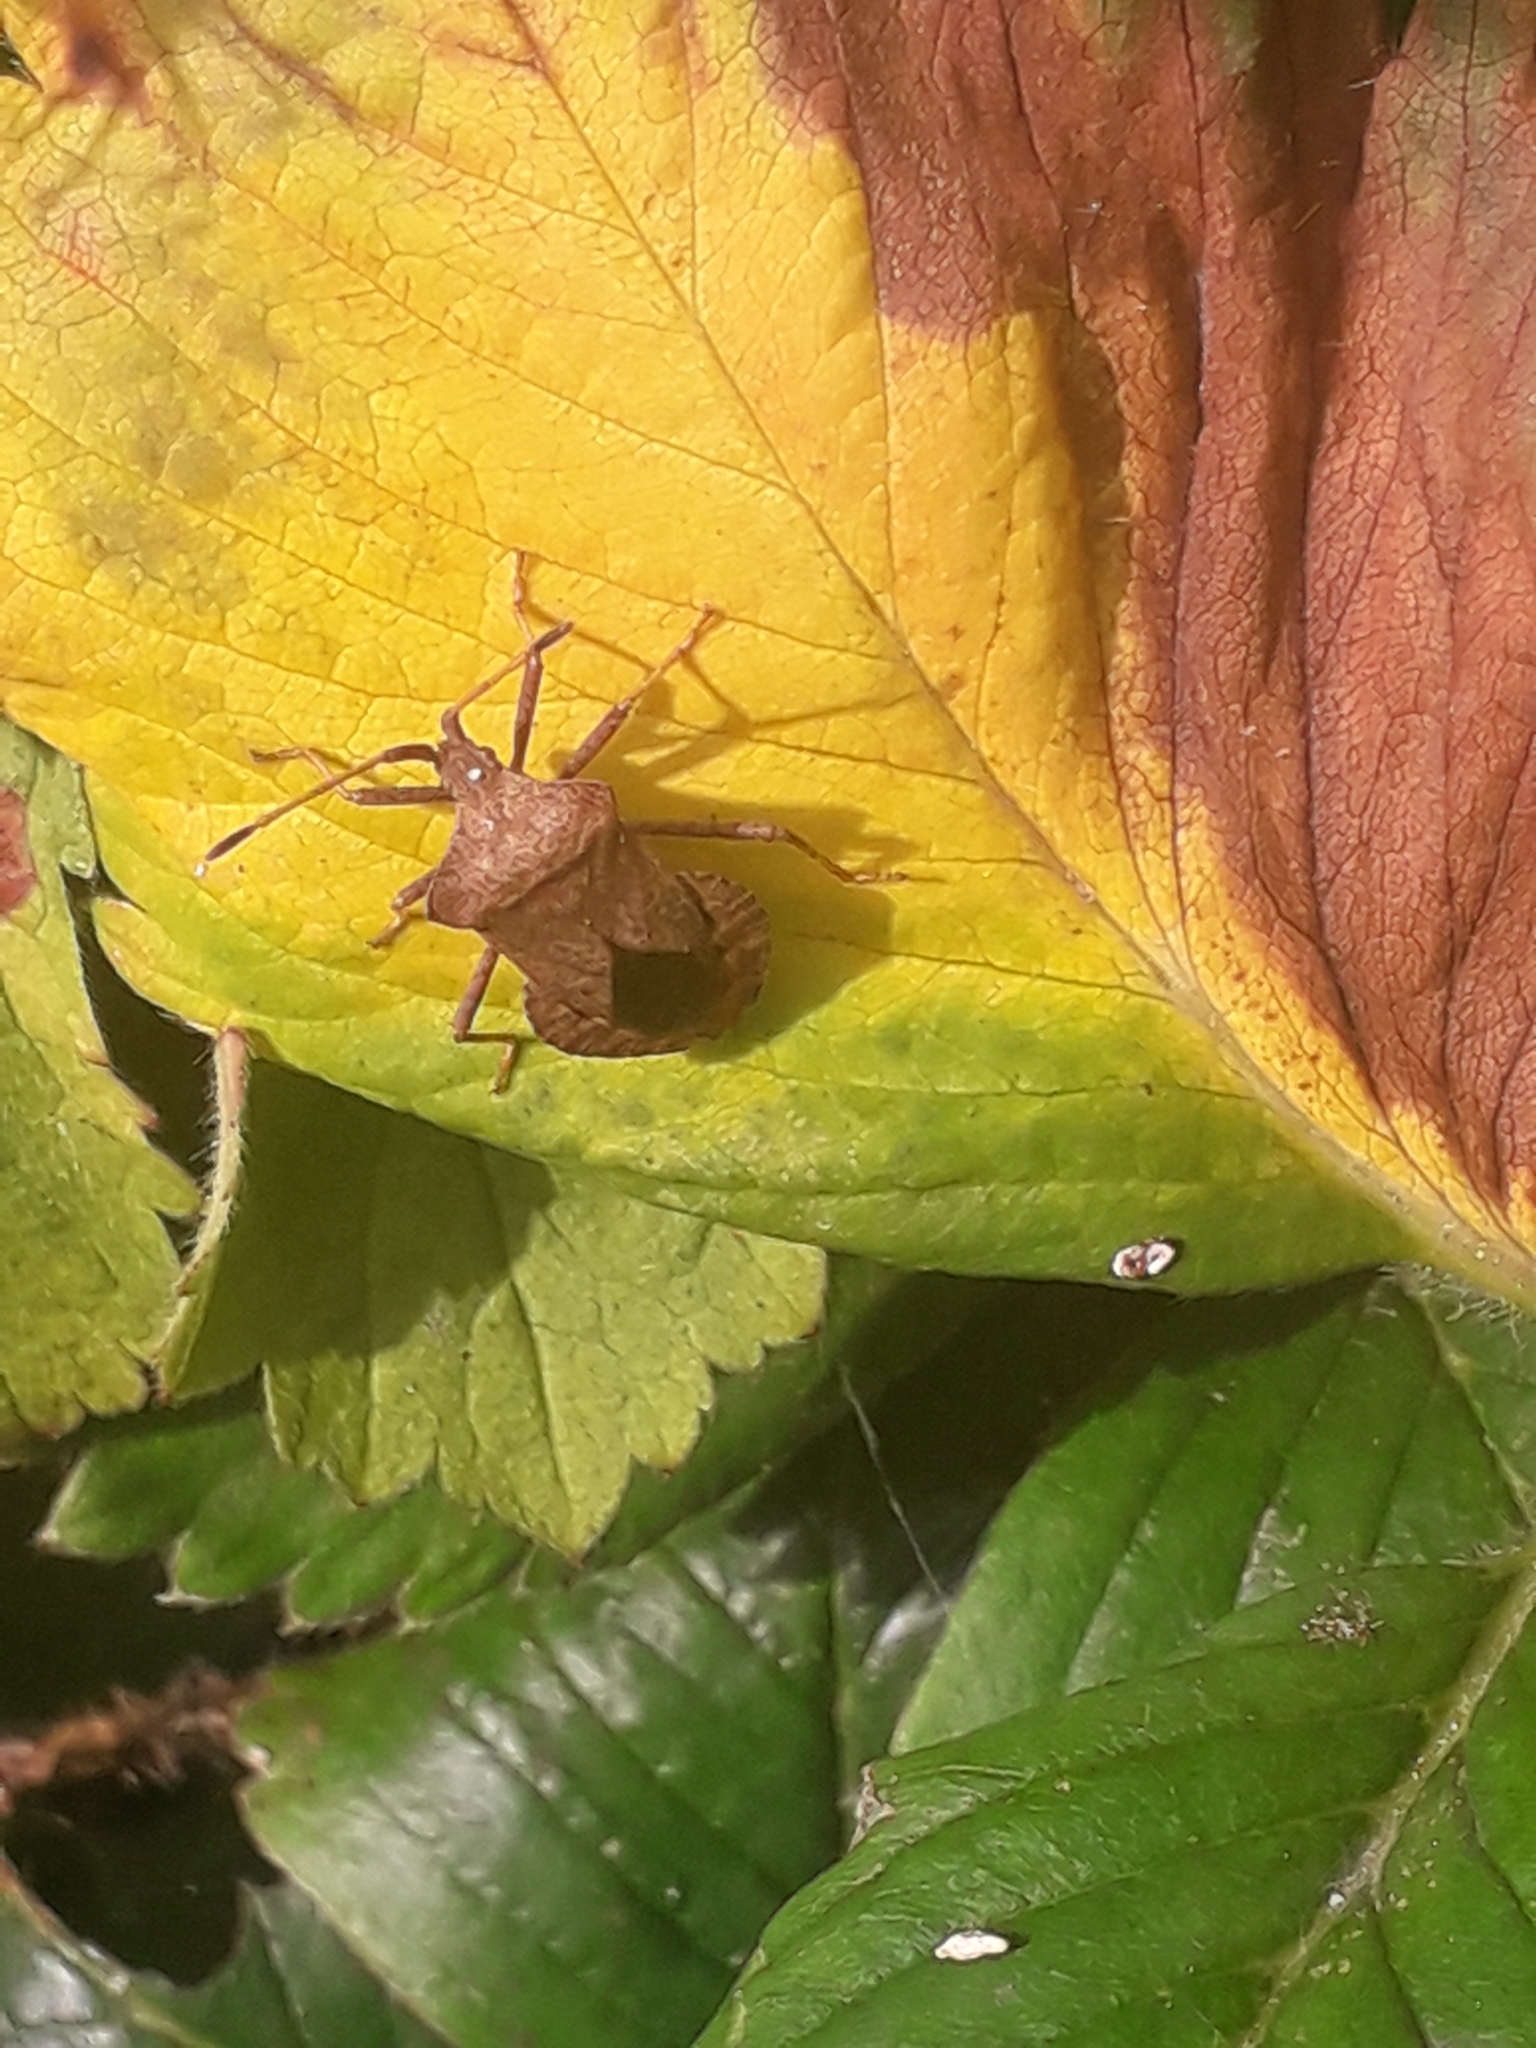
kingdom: Animalia
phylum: Arthropoda
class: Insecta
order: Hemiptera
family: Coreidae
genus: Coreus
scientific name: Coreus marginatus
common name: Dock bug
